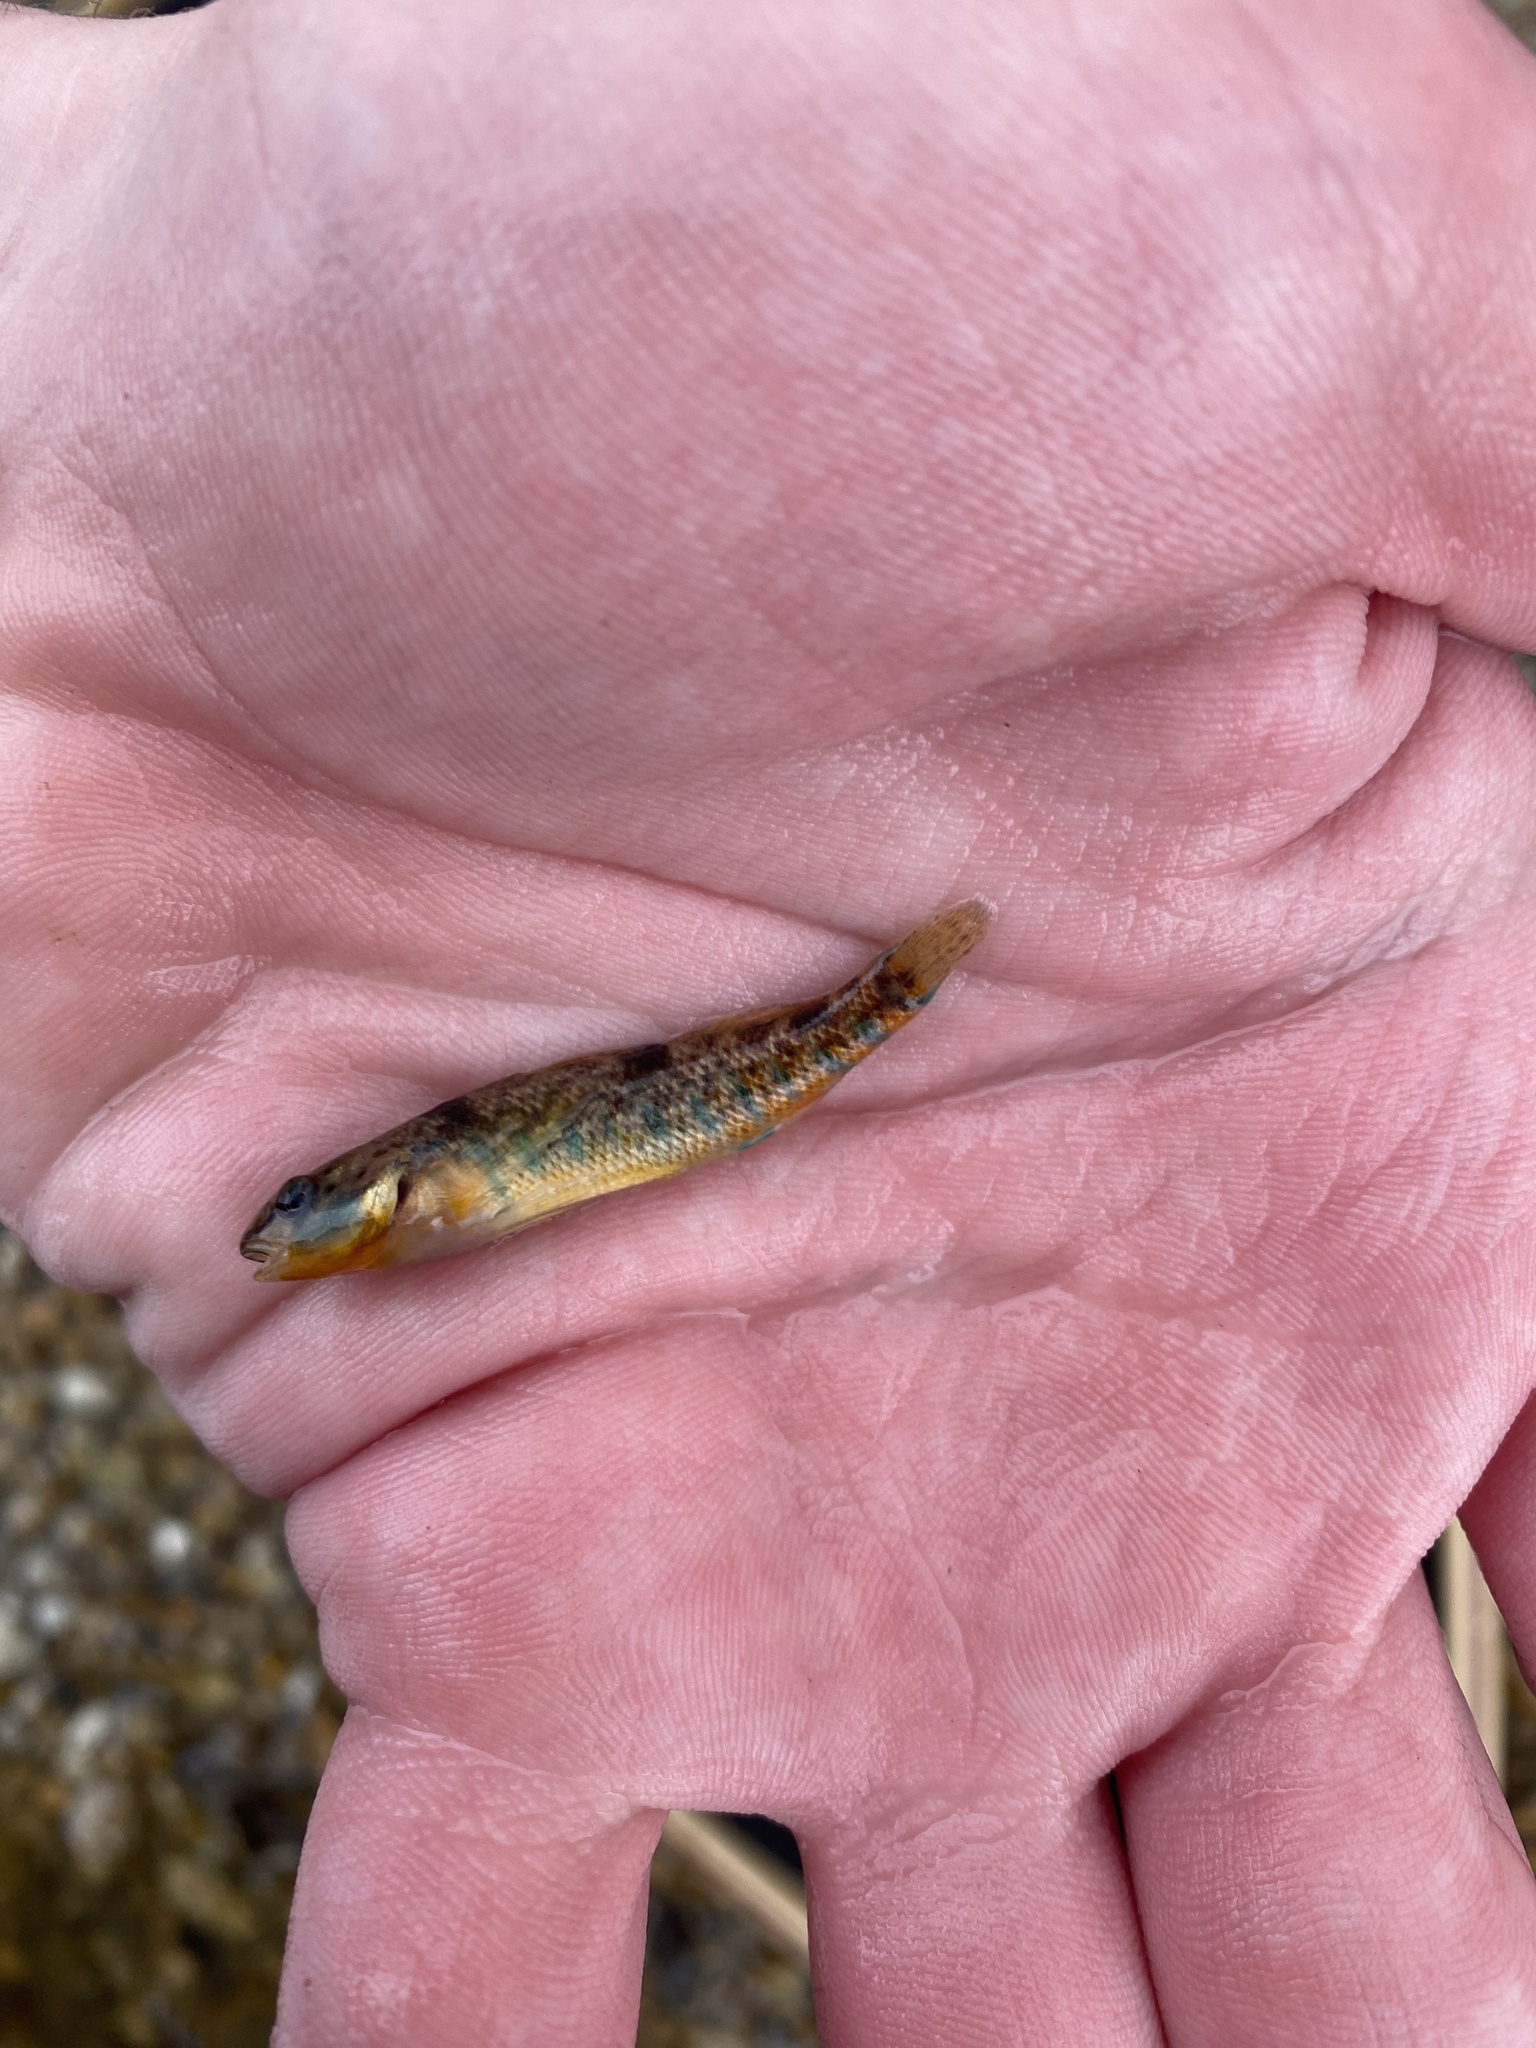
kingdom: Animalia
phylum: Chordata
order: Perciformes
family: Percidae
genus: Etheostoma
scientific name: Etheostoma caeruleum
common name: Rainbow darter
